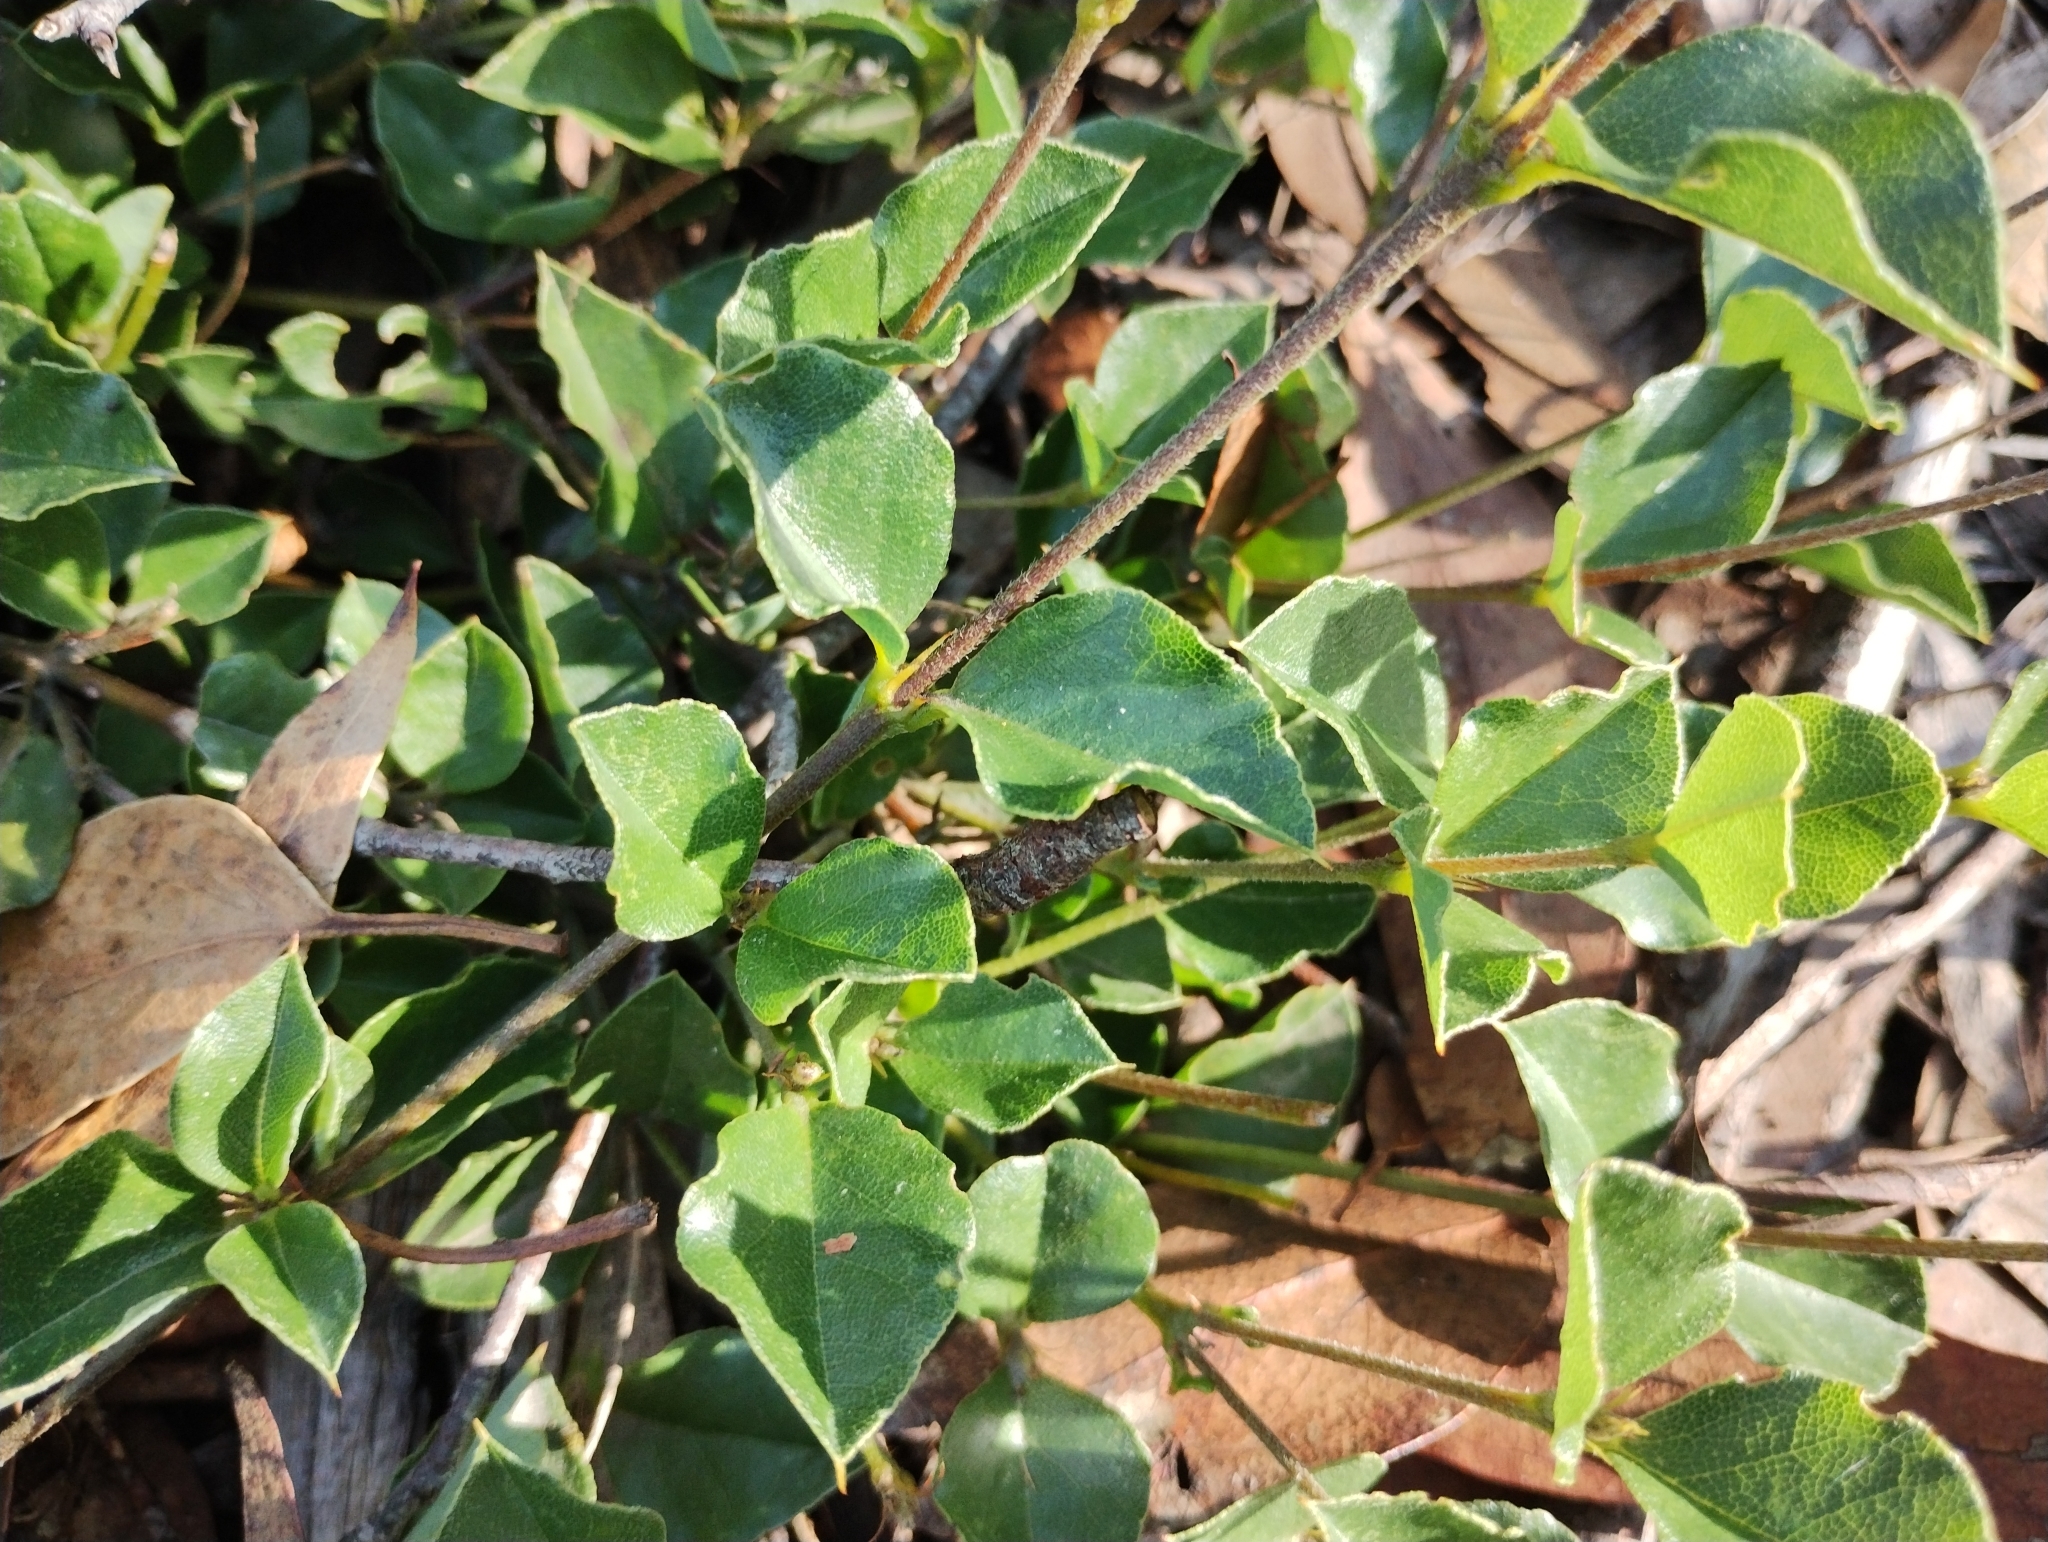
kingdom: Plantae
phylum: Tracheophyta
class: Magnoliopsida
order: Fabales
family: Fabaceae
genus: Podolobium
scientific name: Podolobium procumbens
